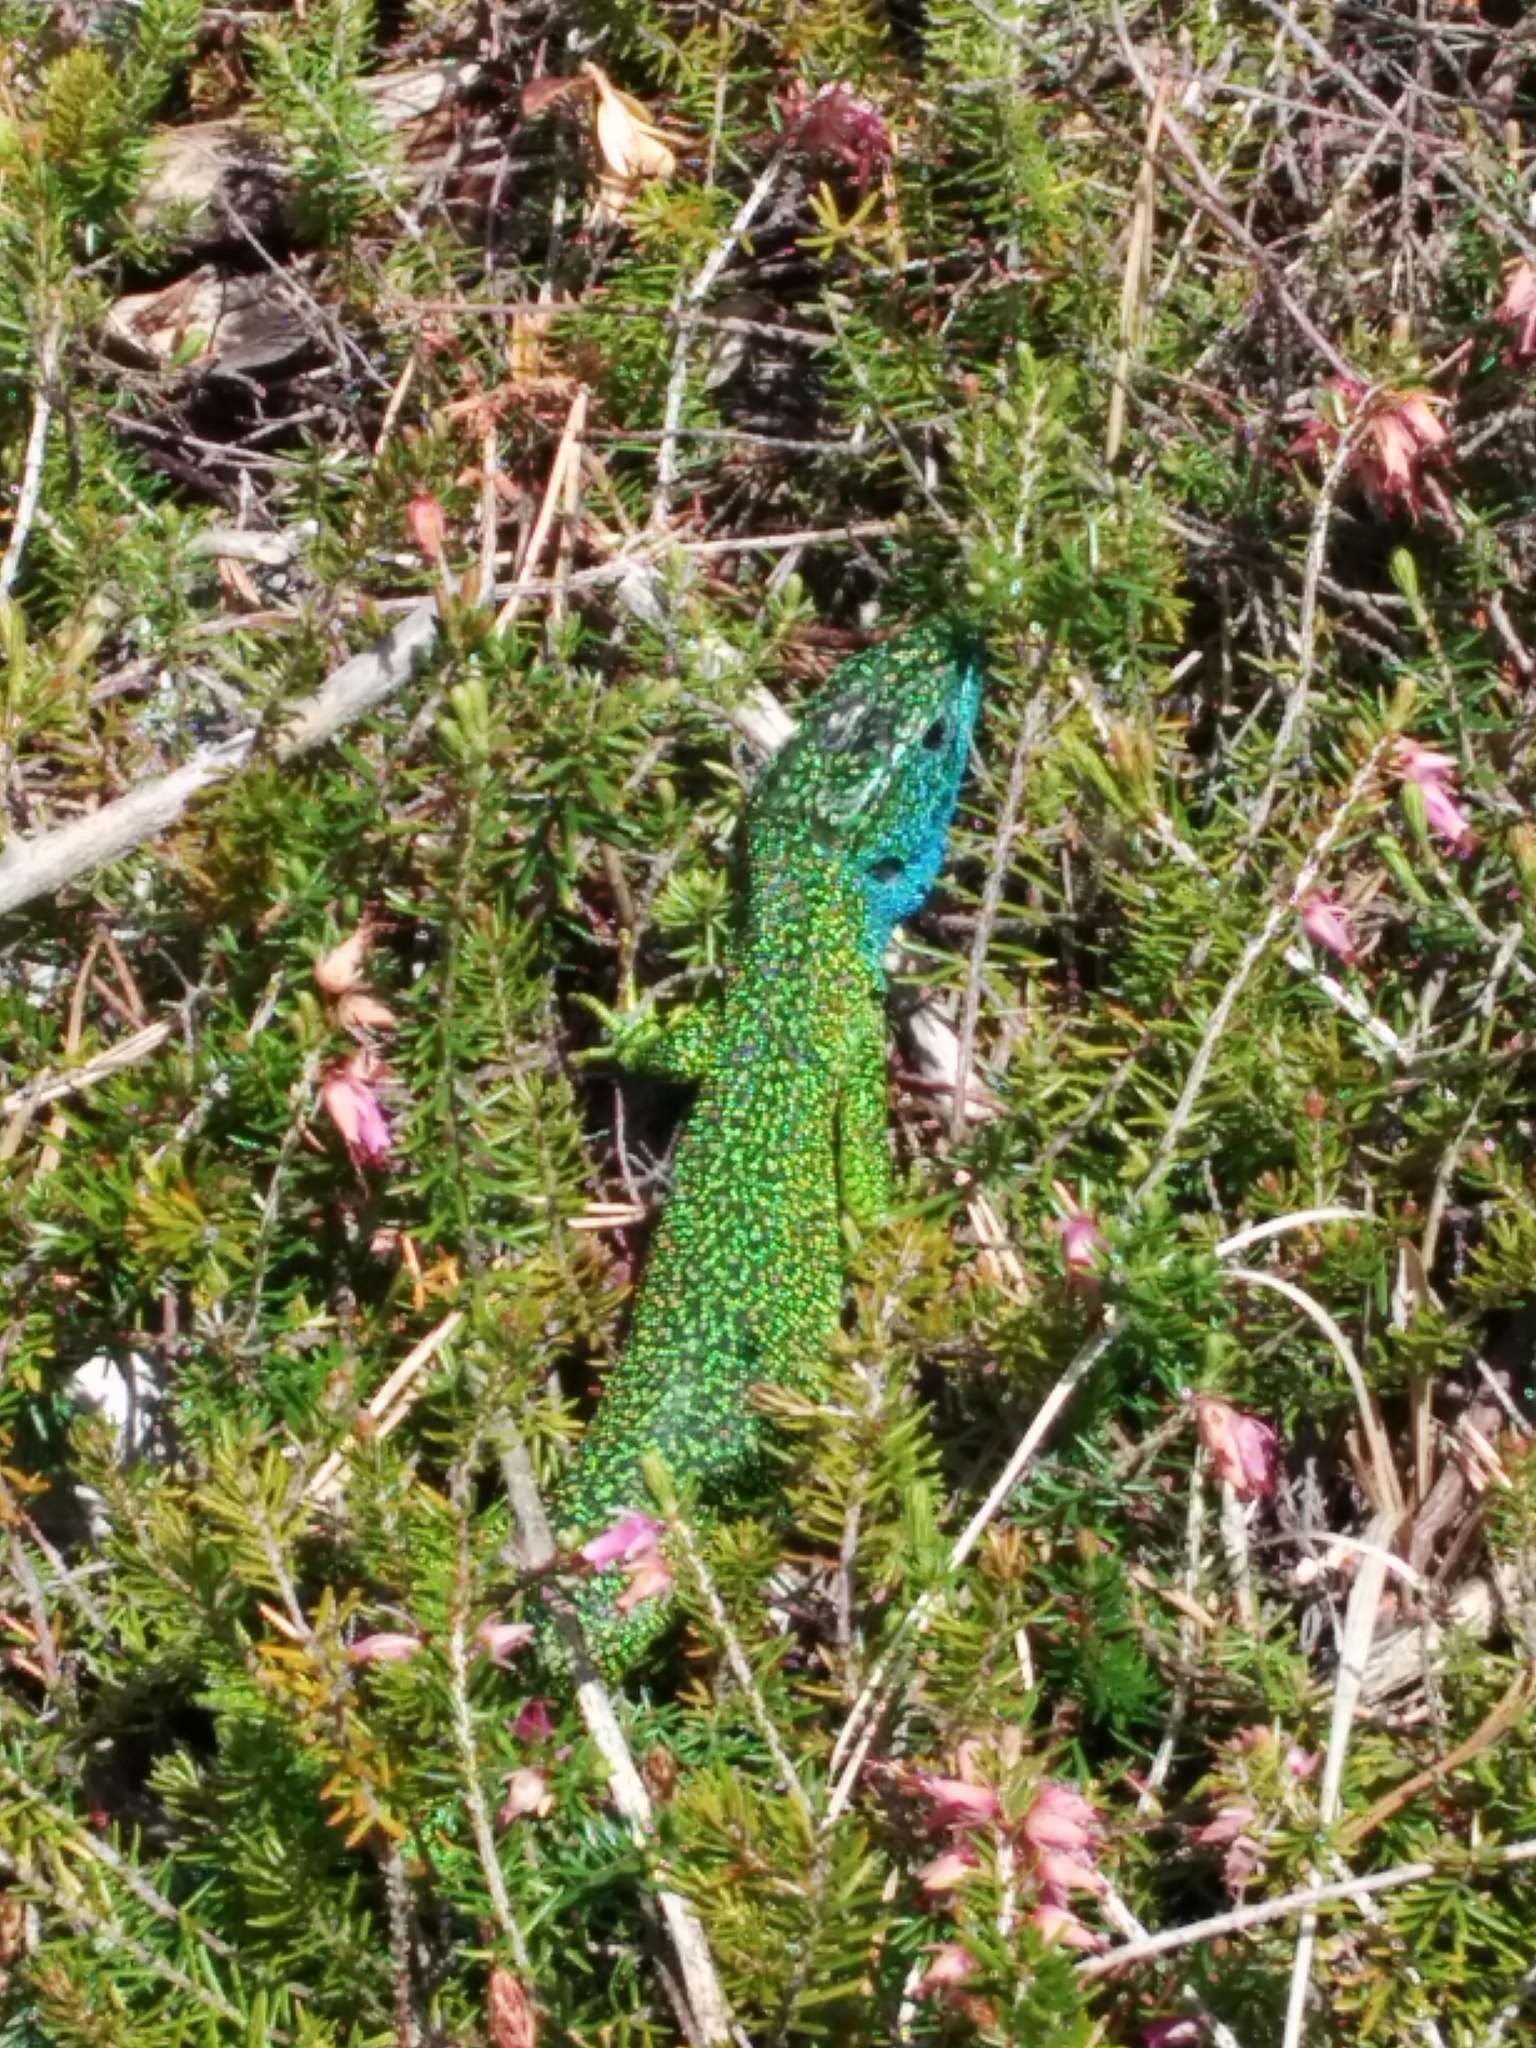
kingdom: Animalia
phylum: Chordata
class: Squamata
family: Lacertidae
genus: Lacerta
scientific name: Lacerta bilineata
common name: Western green lizard
